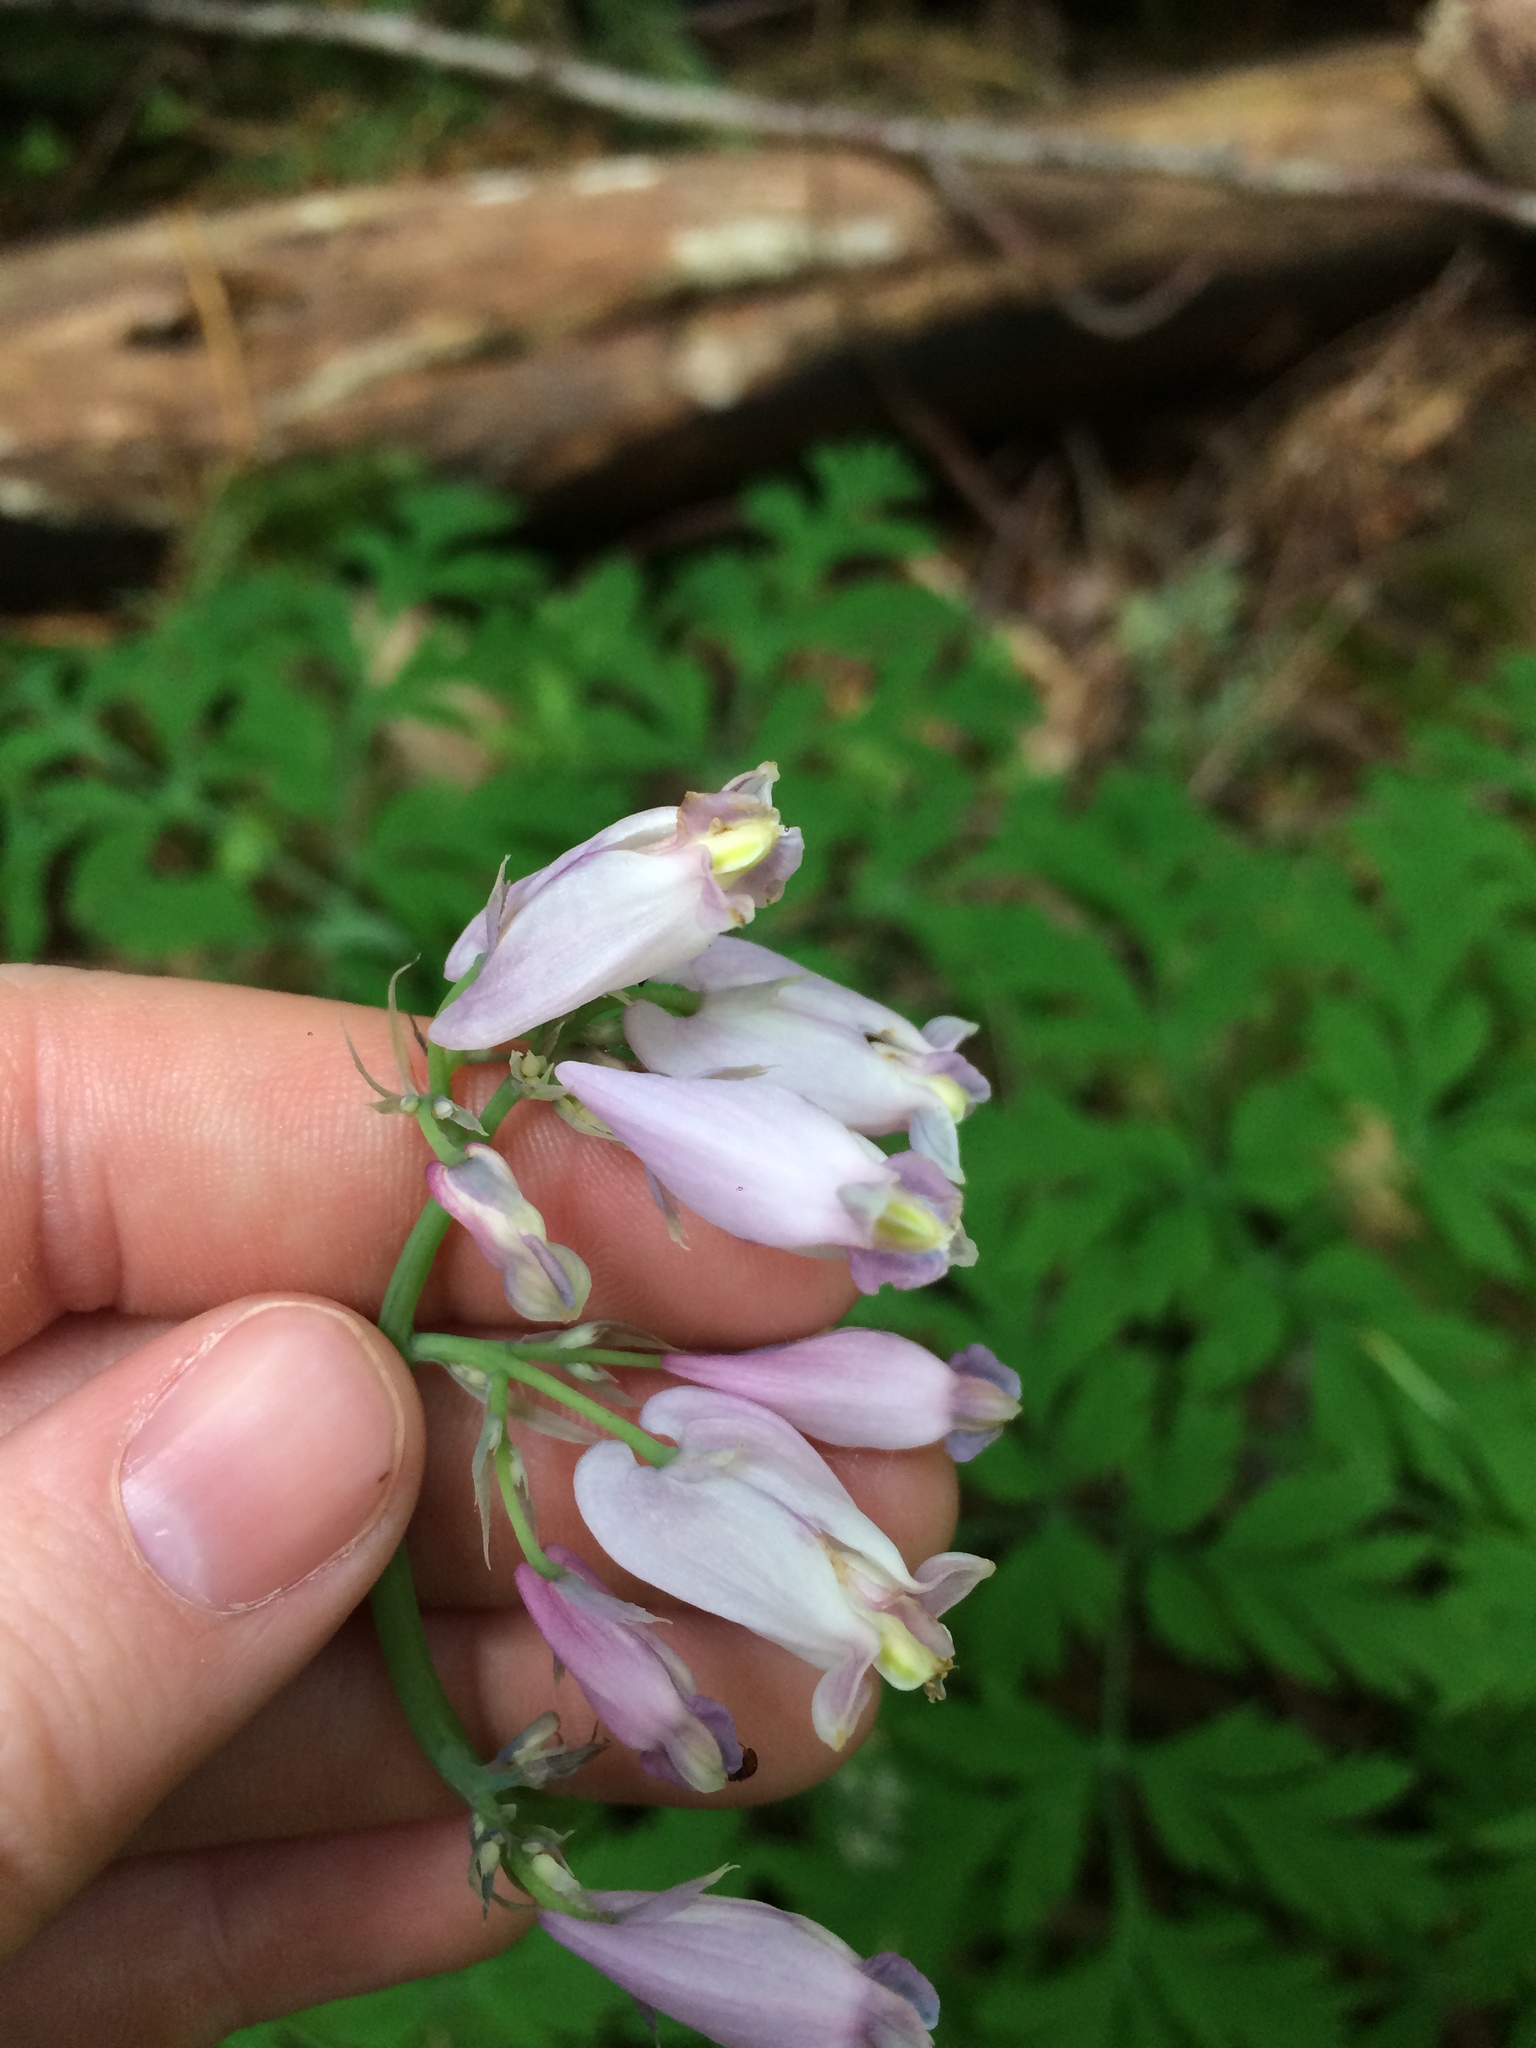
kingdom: Plantae
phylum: Tracheophyta
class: Magnoliopsida
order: Ranunculales
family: Papaveraceae
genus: Dicentra
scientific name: Dicentra formosa
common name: Bleeding-heart
